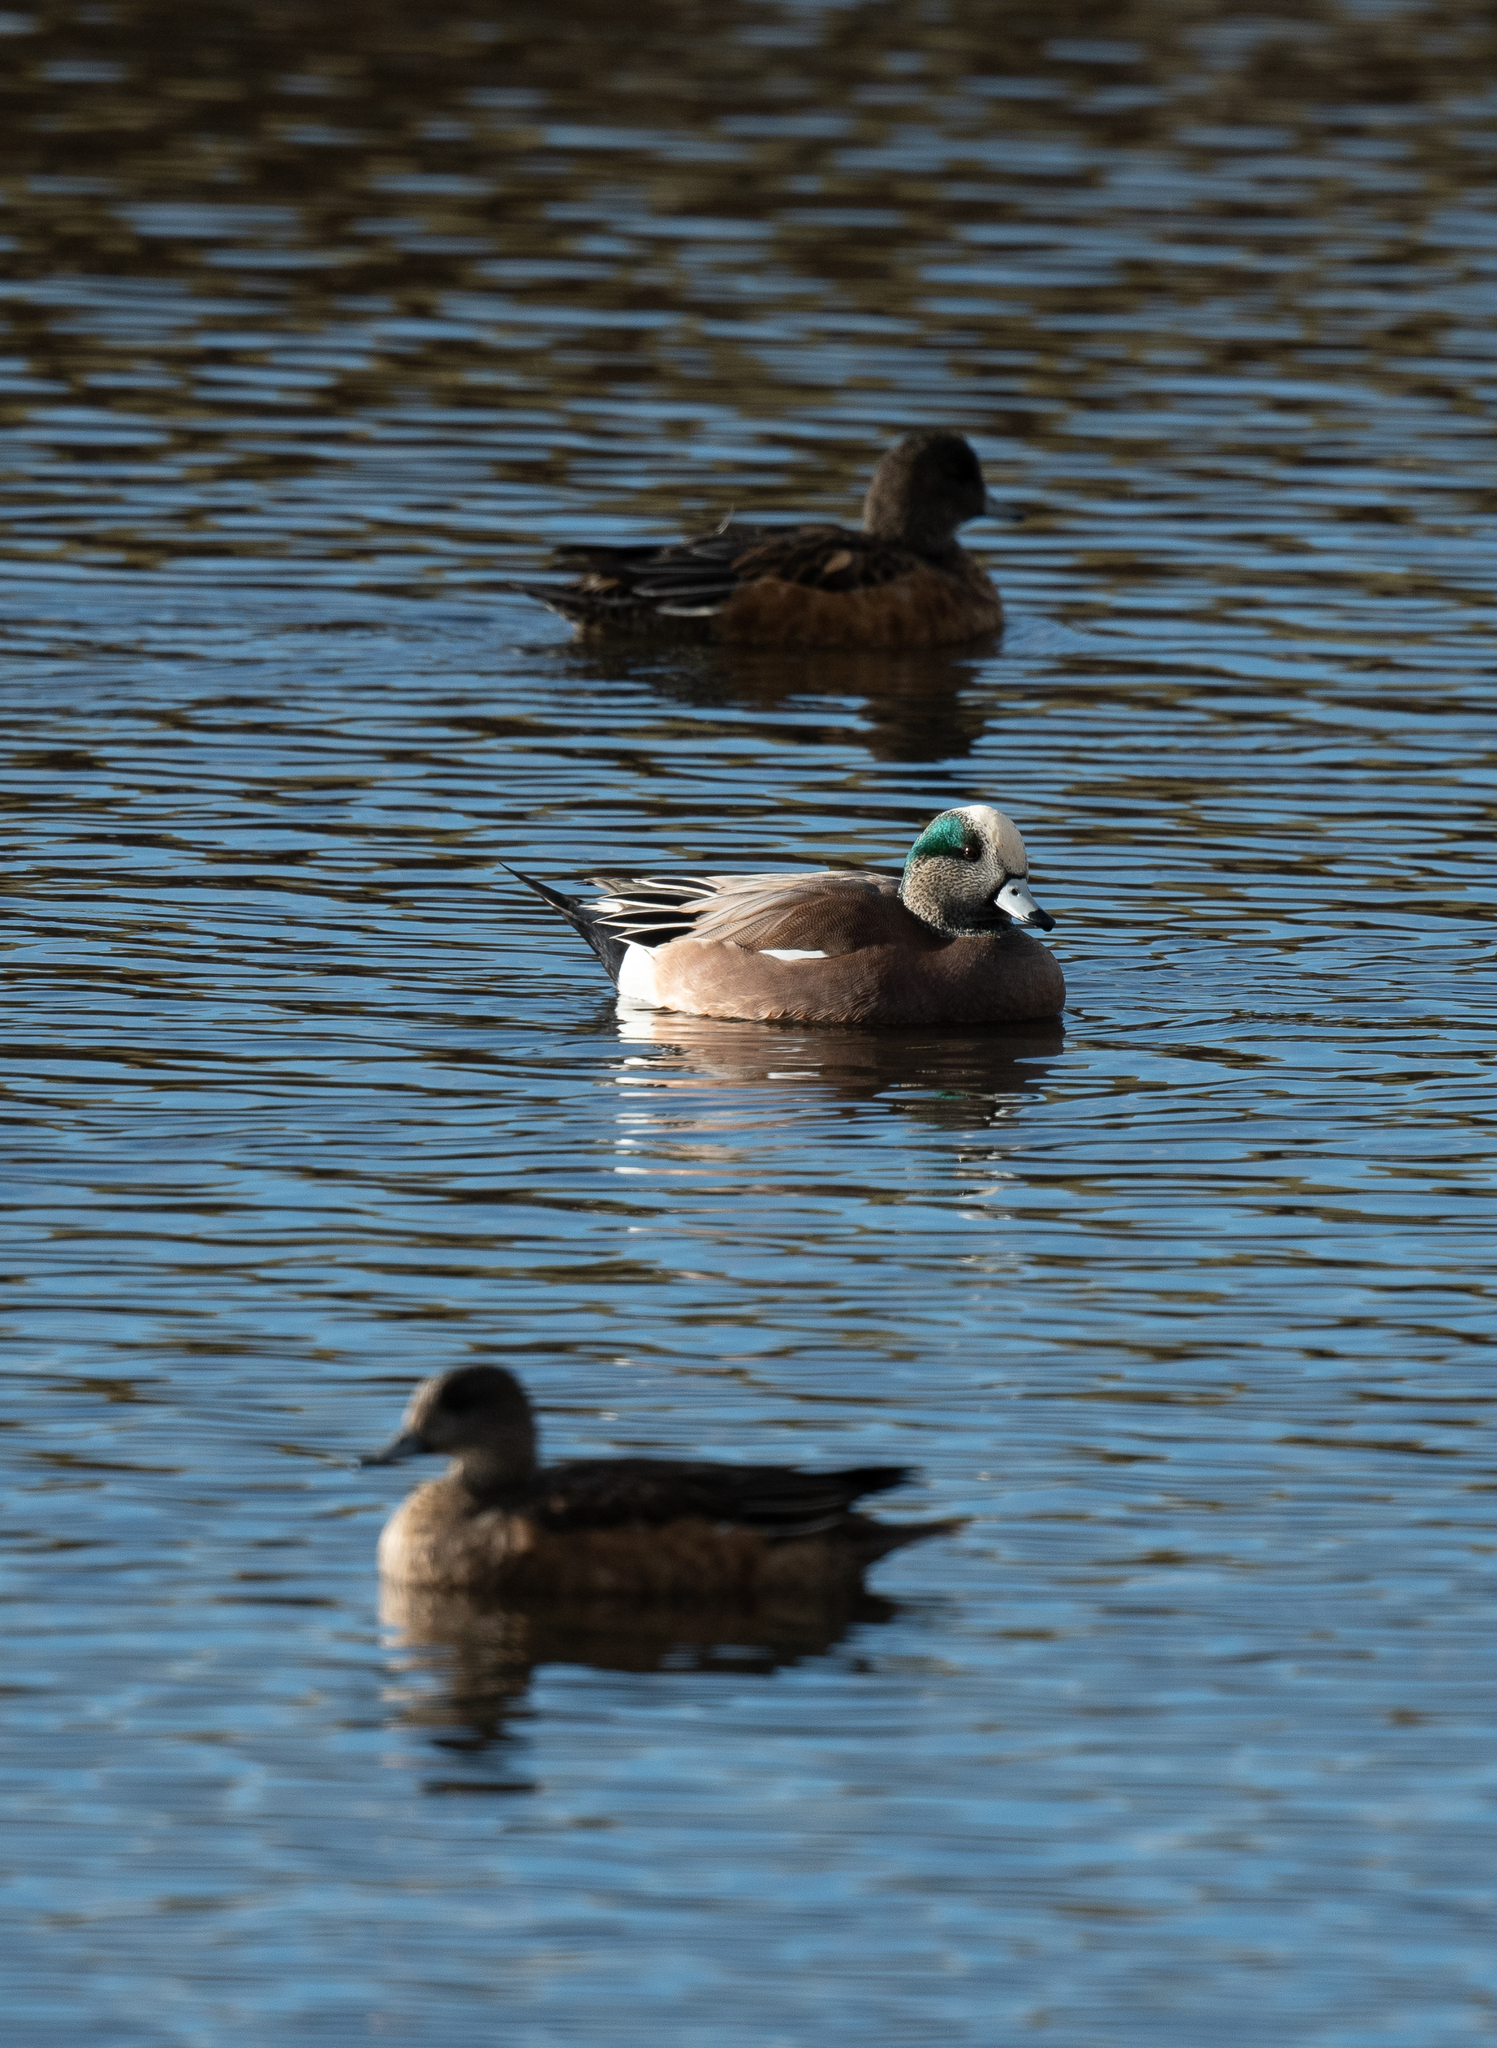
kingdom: Animalia
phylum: Chordata
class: Aves
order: Anseriformes
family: Anatidae
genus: Mareca
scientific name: Mareca americana
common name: American wigeon
